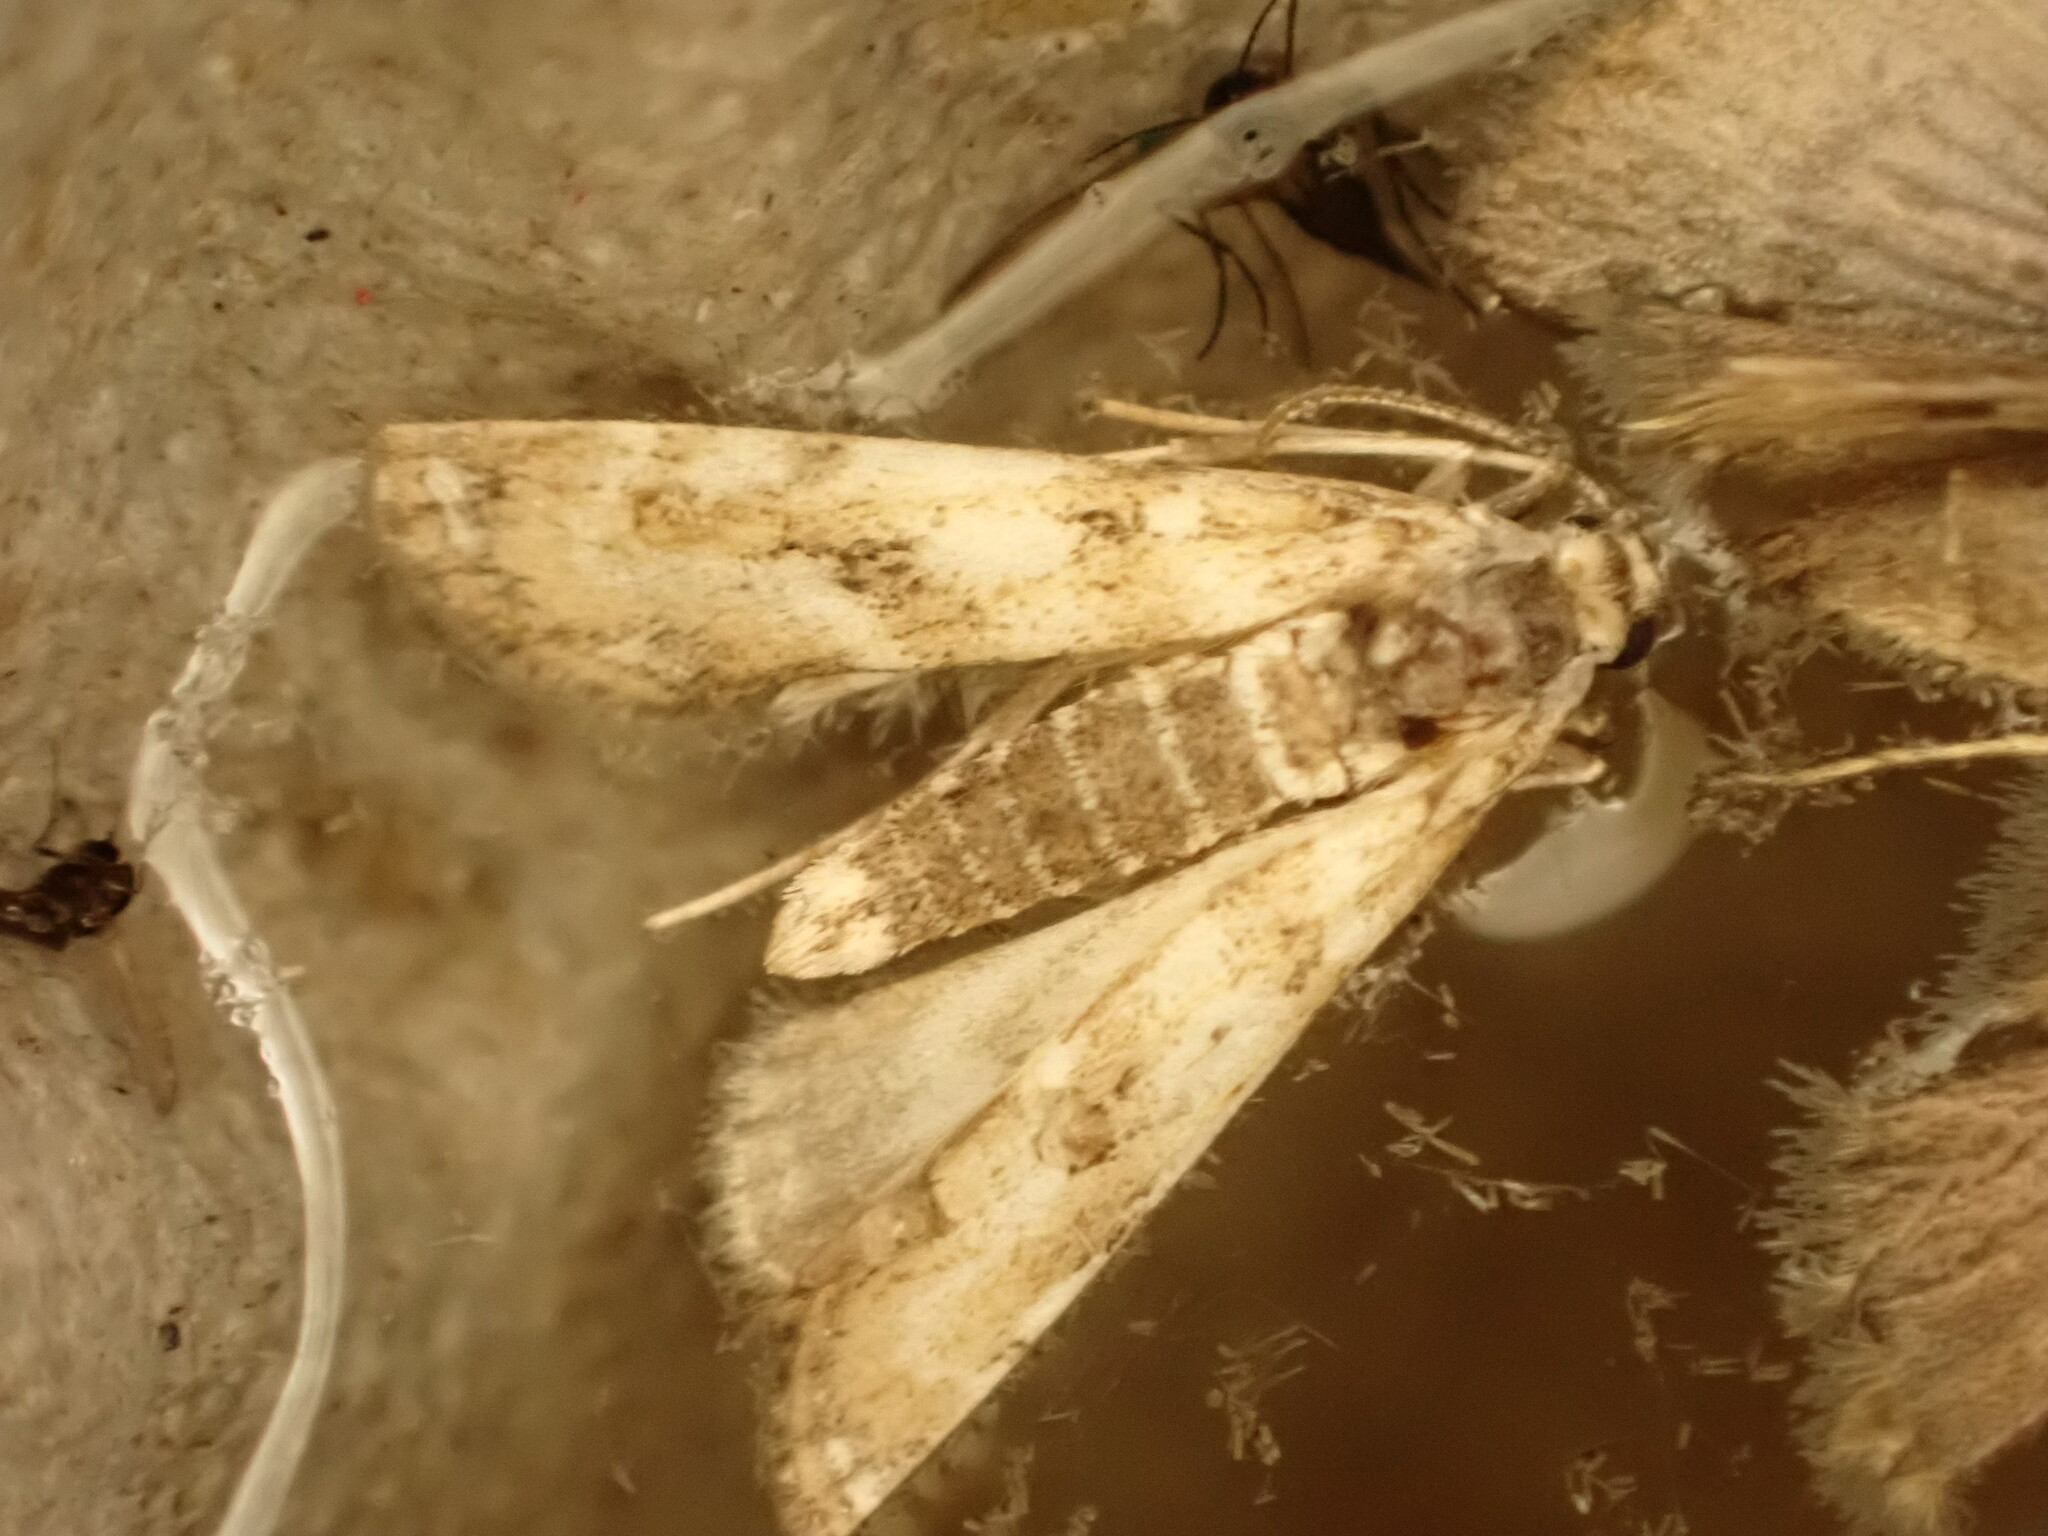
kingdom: Animalia
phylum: Arthropoda
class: Insecta
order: Lepidoptera
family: Crambidae
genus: Hygraula
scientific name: Hygraula nitens
